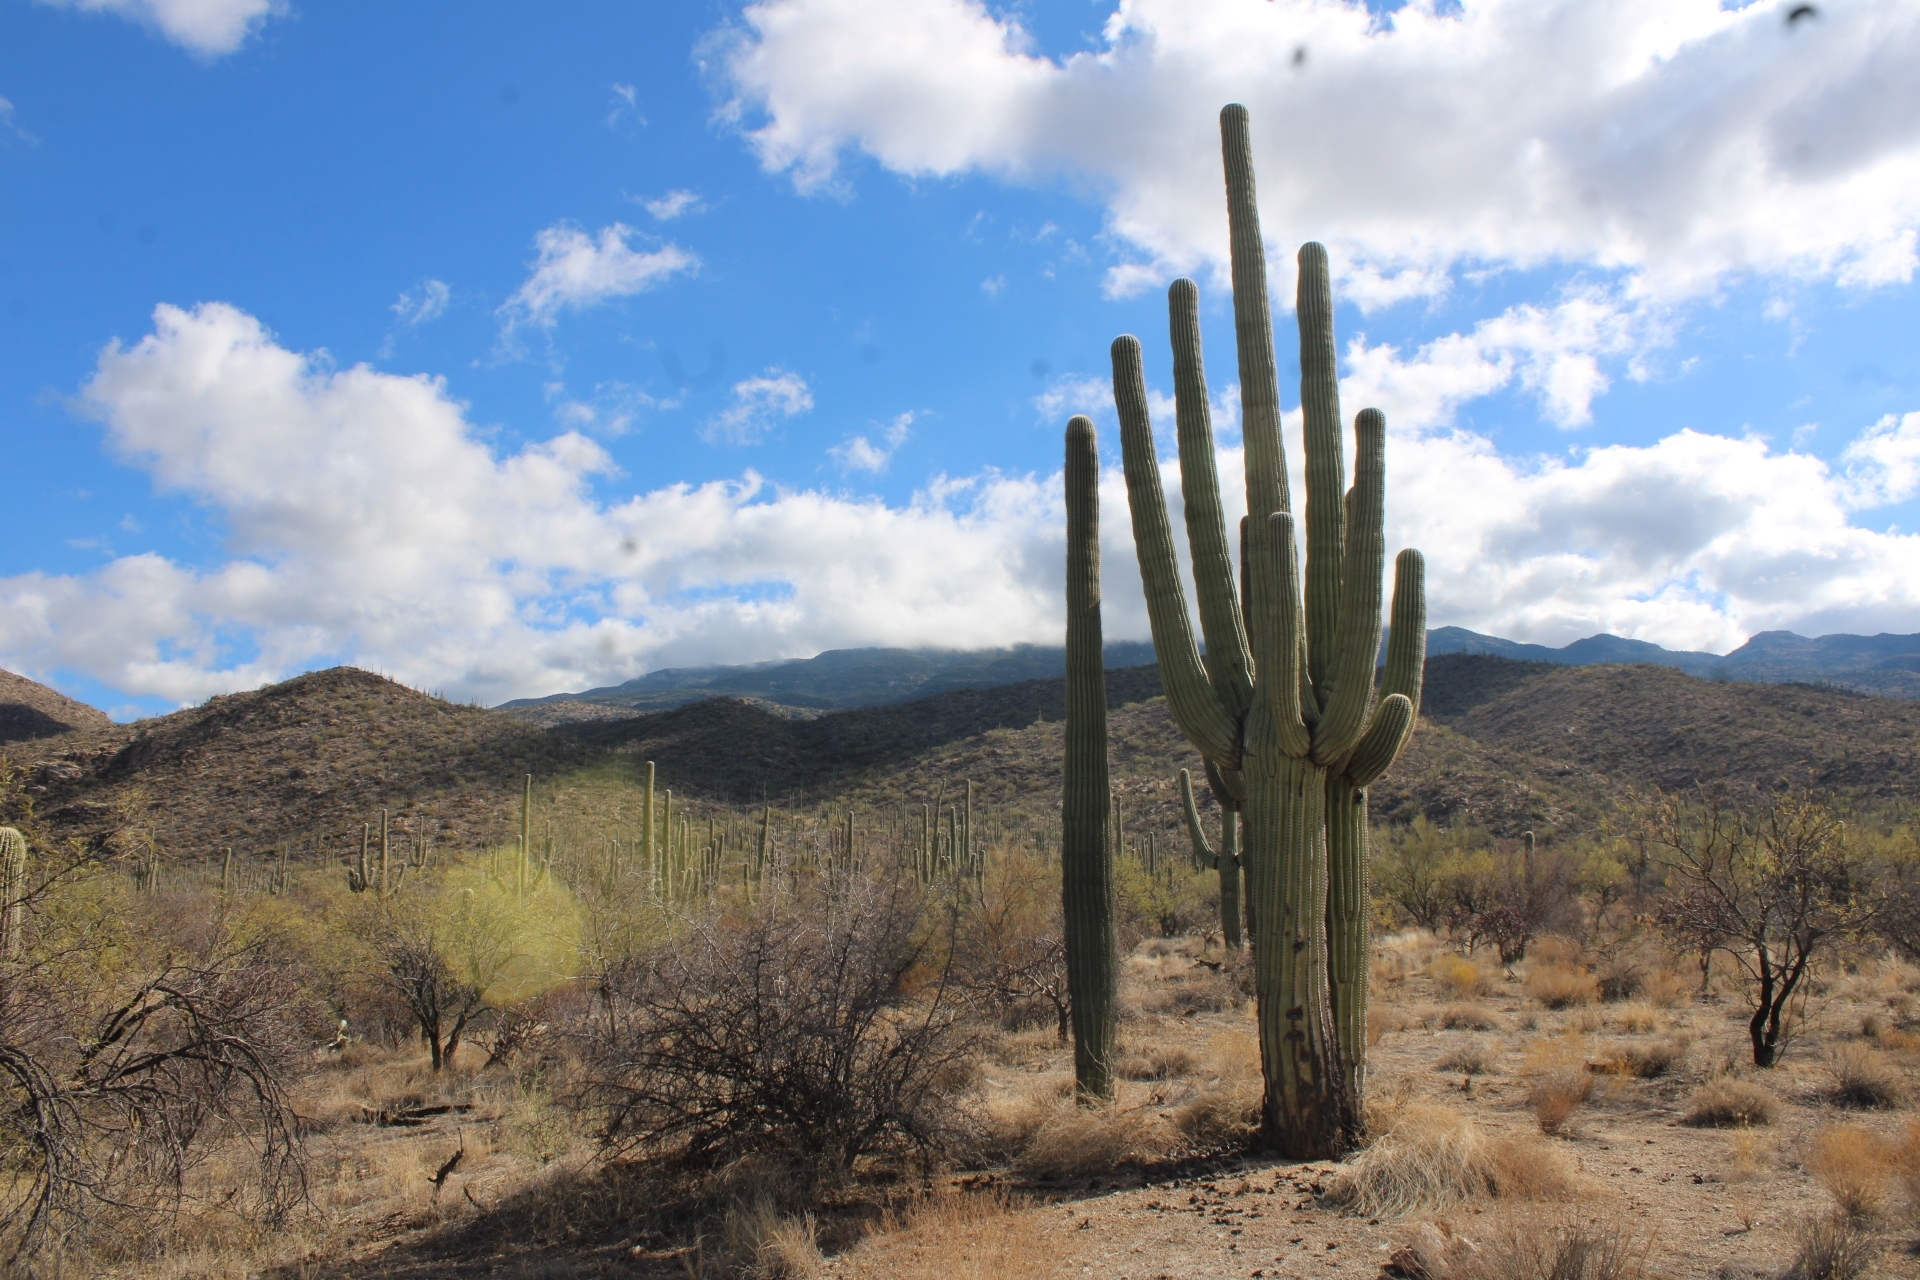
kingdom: Plantae
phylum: Tracheophyta
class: Magnoliopsida
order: Caryophyllales
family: Cactaceae
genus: Carnegiea
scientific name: Carnegiea gigantea
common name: Saguaro
